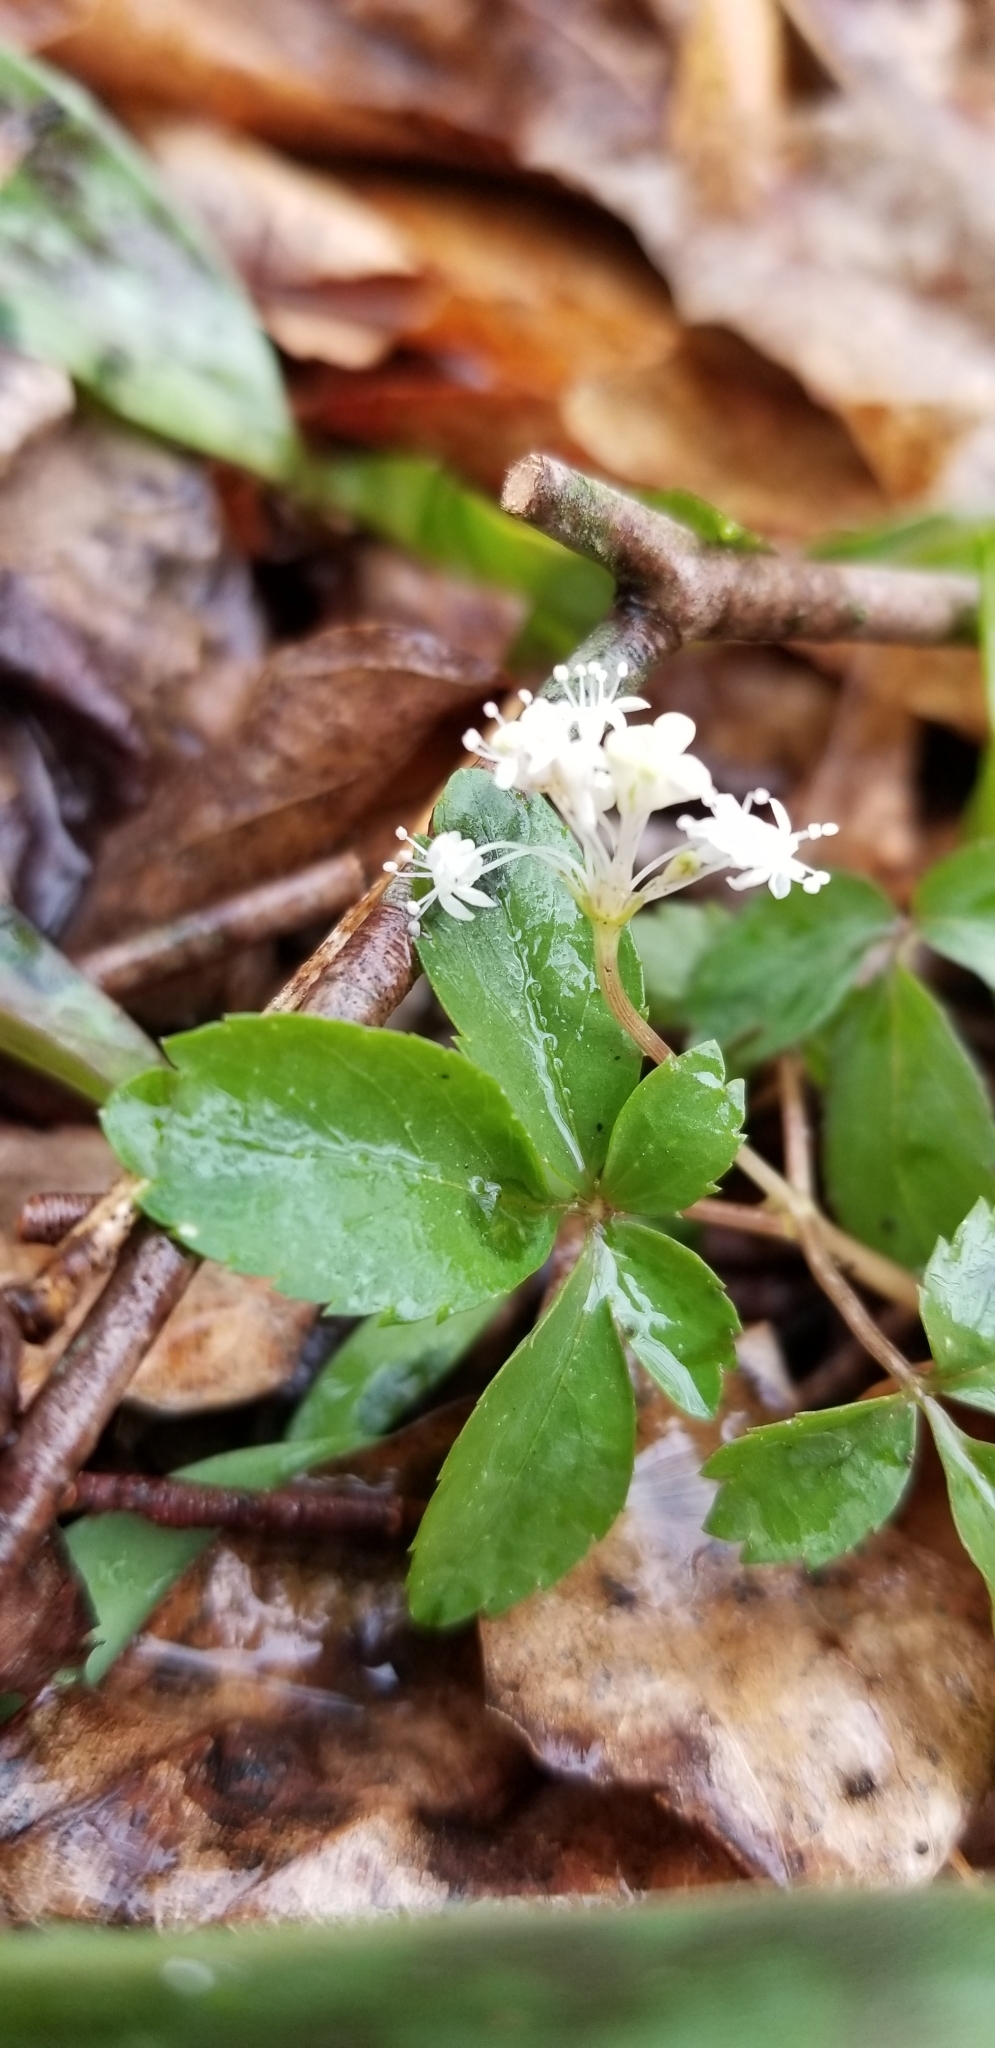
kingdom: Plantae
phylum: Tracheophyta
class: Magnoliopsida
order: Apiales
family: Araliaceae
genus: Panax
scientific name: Panax trifolius
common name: Dwarf ginseng
